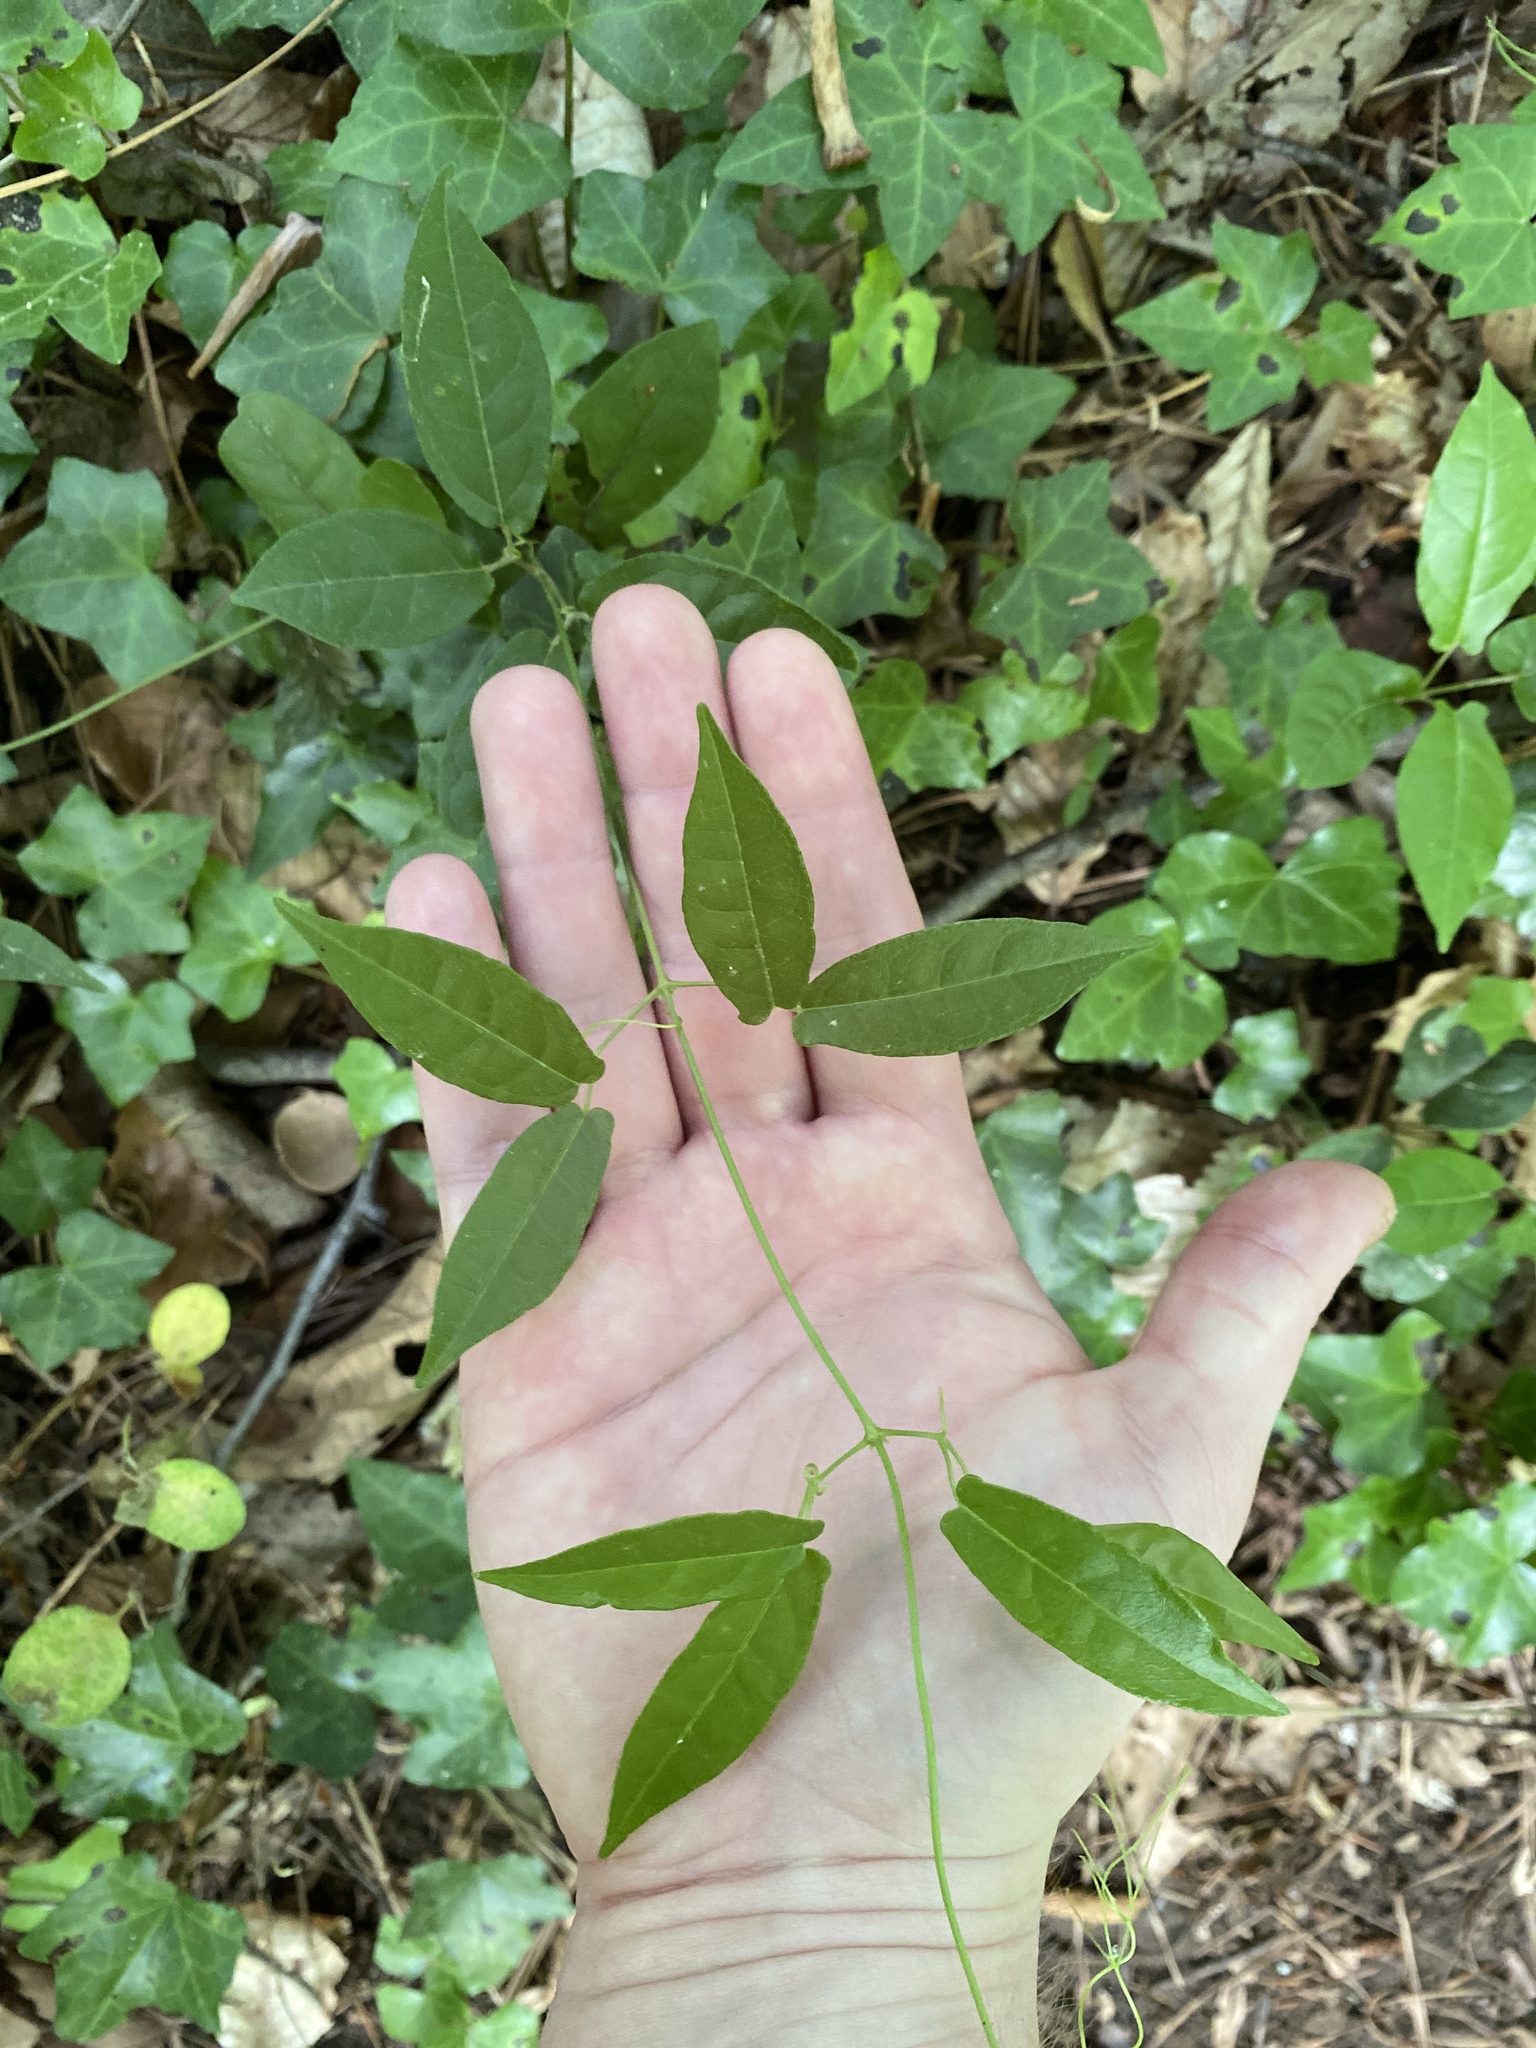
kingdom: Plantae
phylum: Tracheophyta
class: Magnoliopsida
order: Lamiales
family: Bignoniaceae
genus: Bignonia
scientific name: Bignonia capreolata
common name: Crossvine
